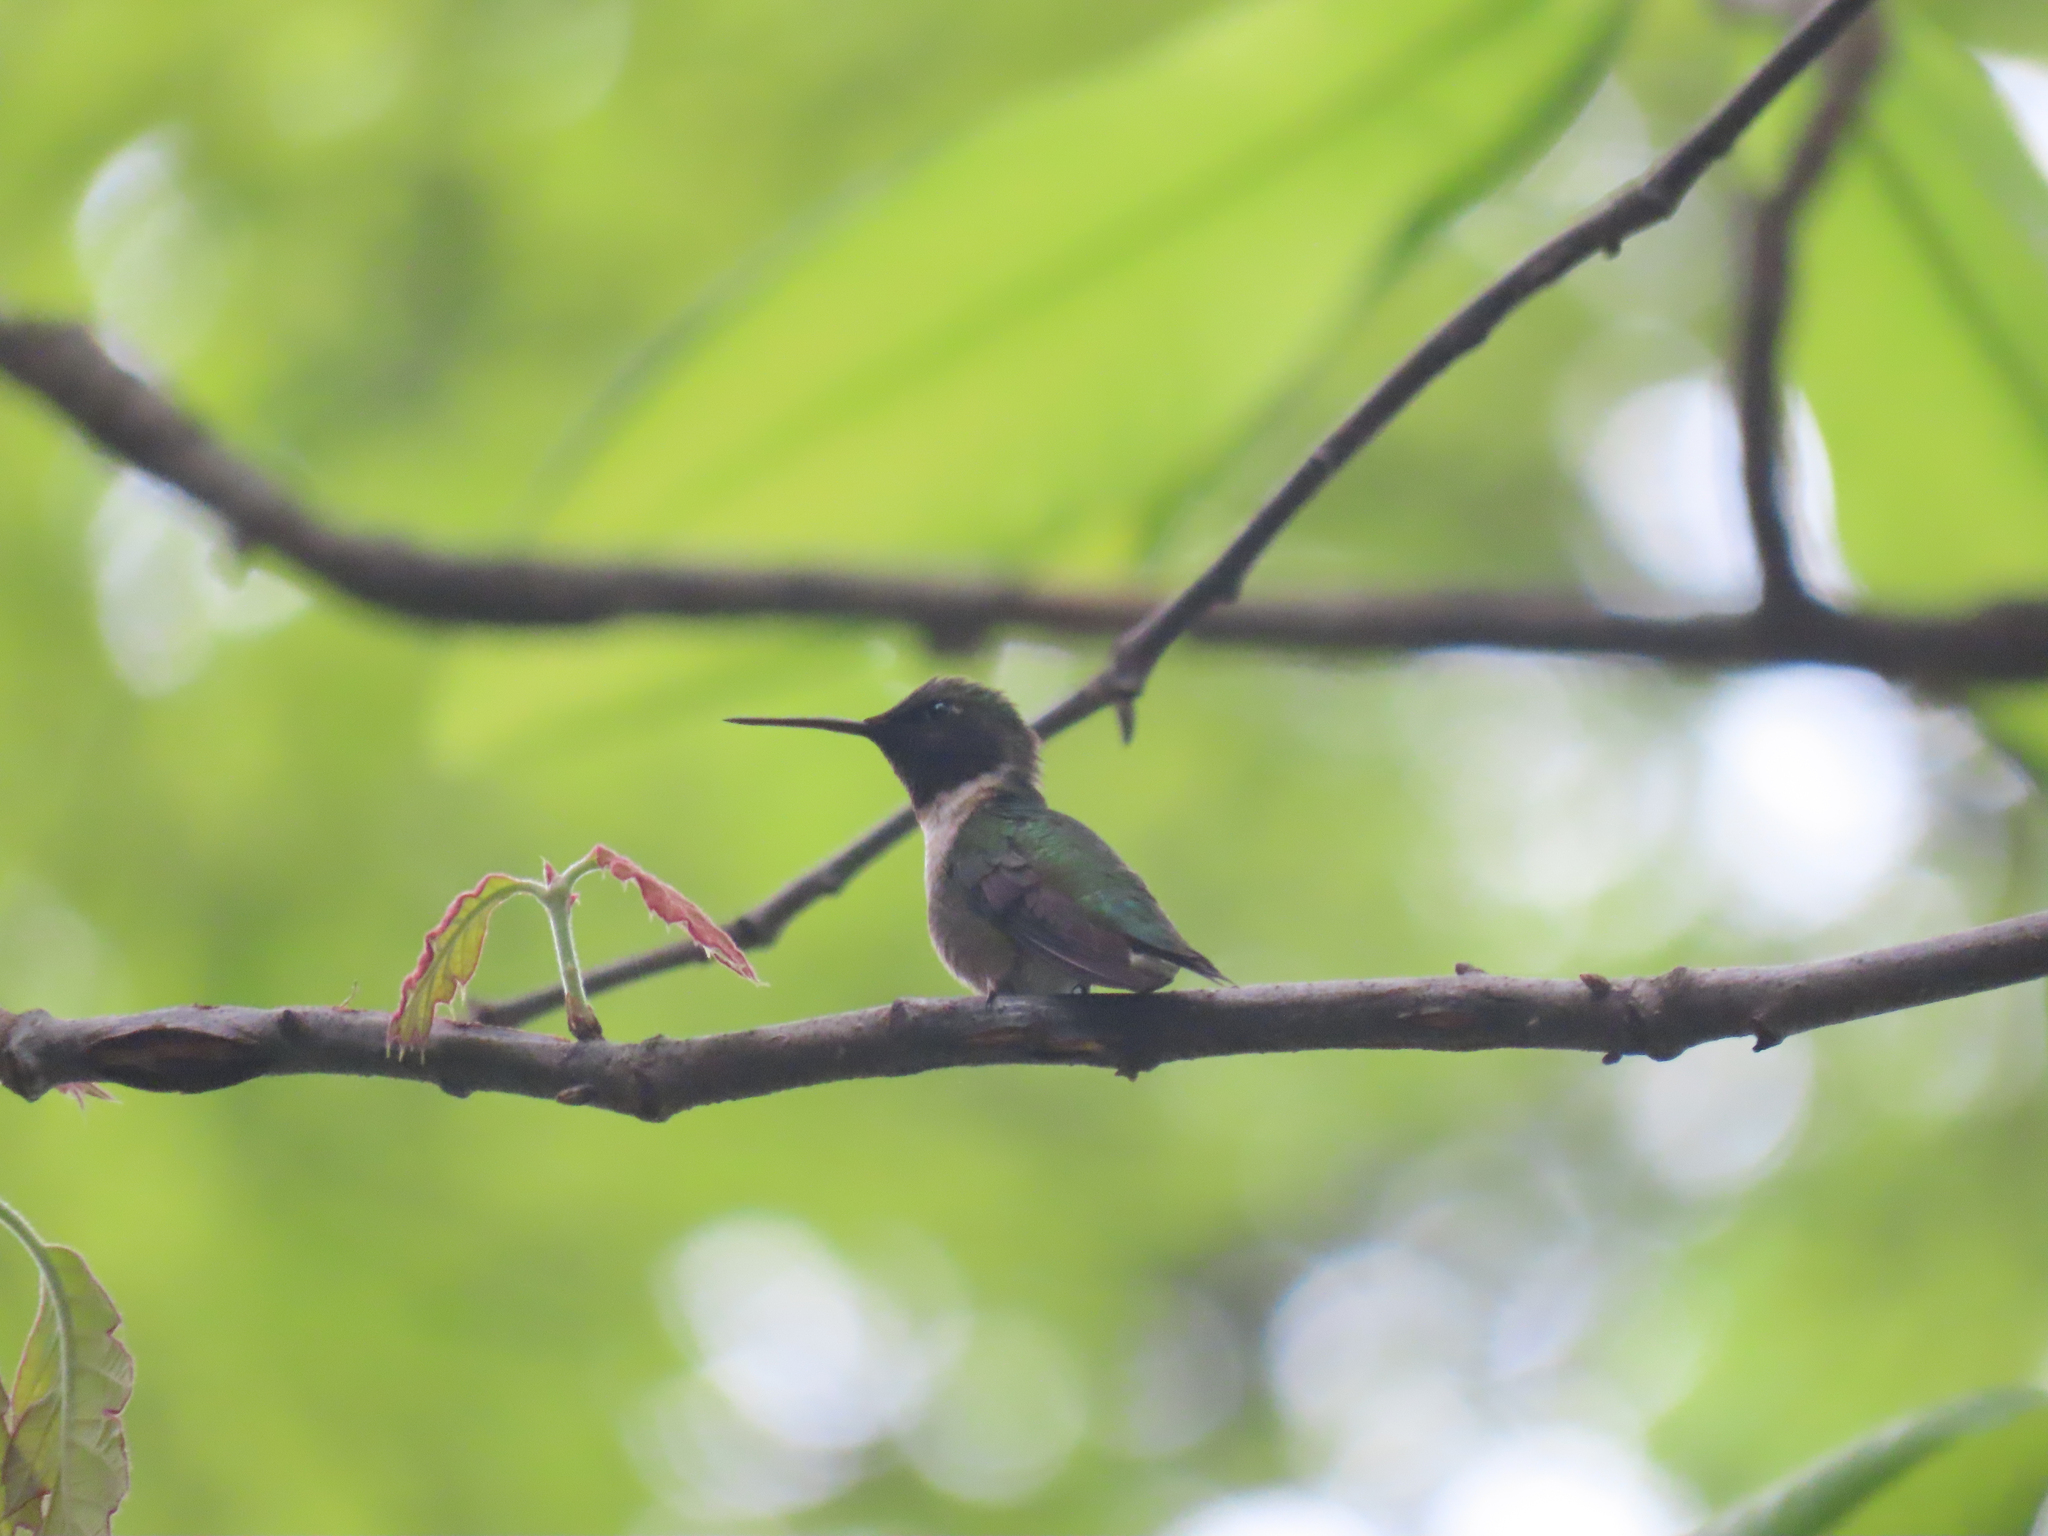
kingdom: Animalia
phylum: Chordata
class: Aves
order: Apodiformes
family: Trochilidae
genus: Archilochus
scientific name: Archilochus colubris
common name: Ruby-throated hummingbird
